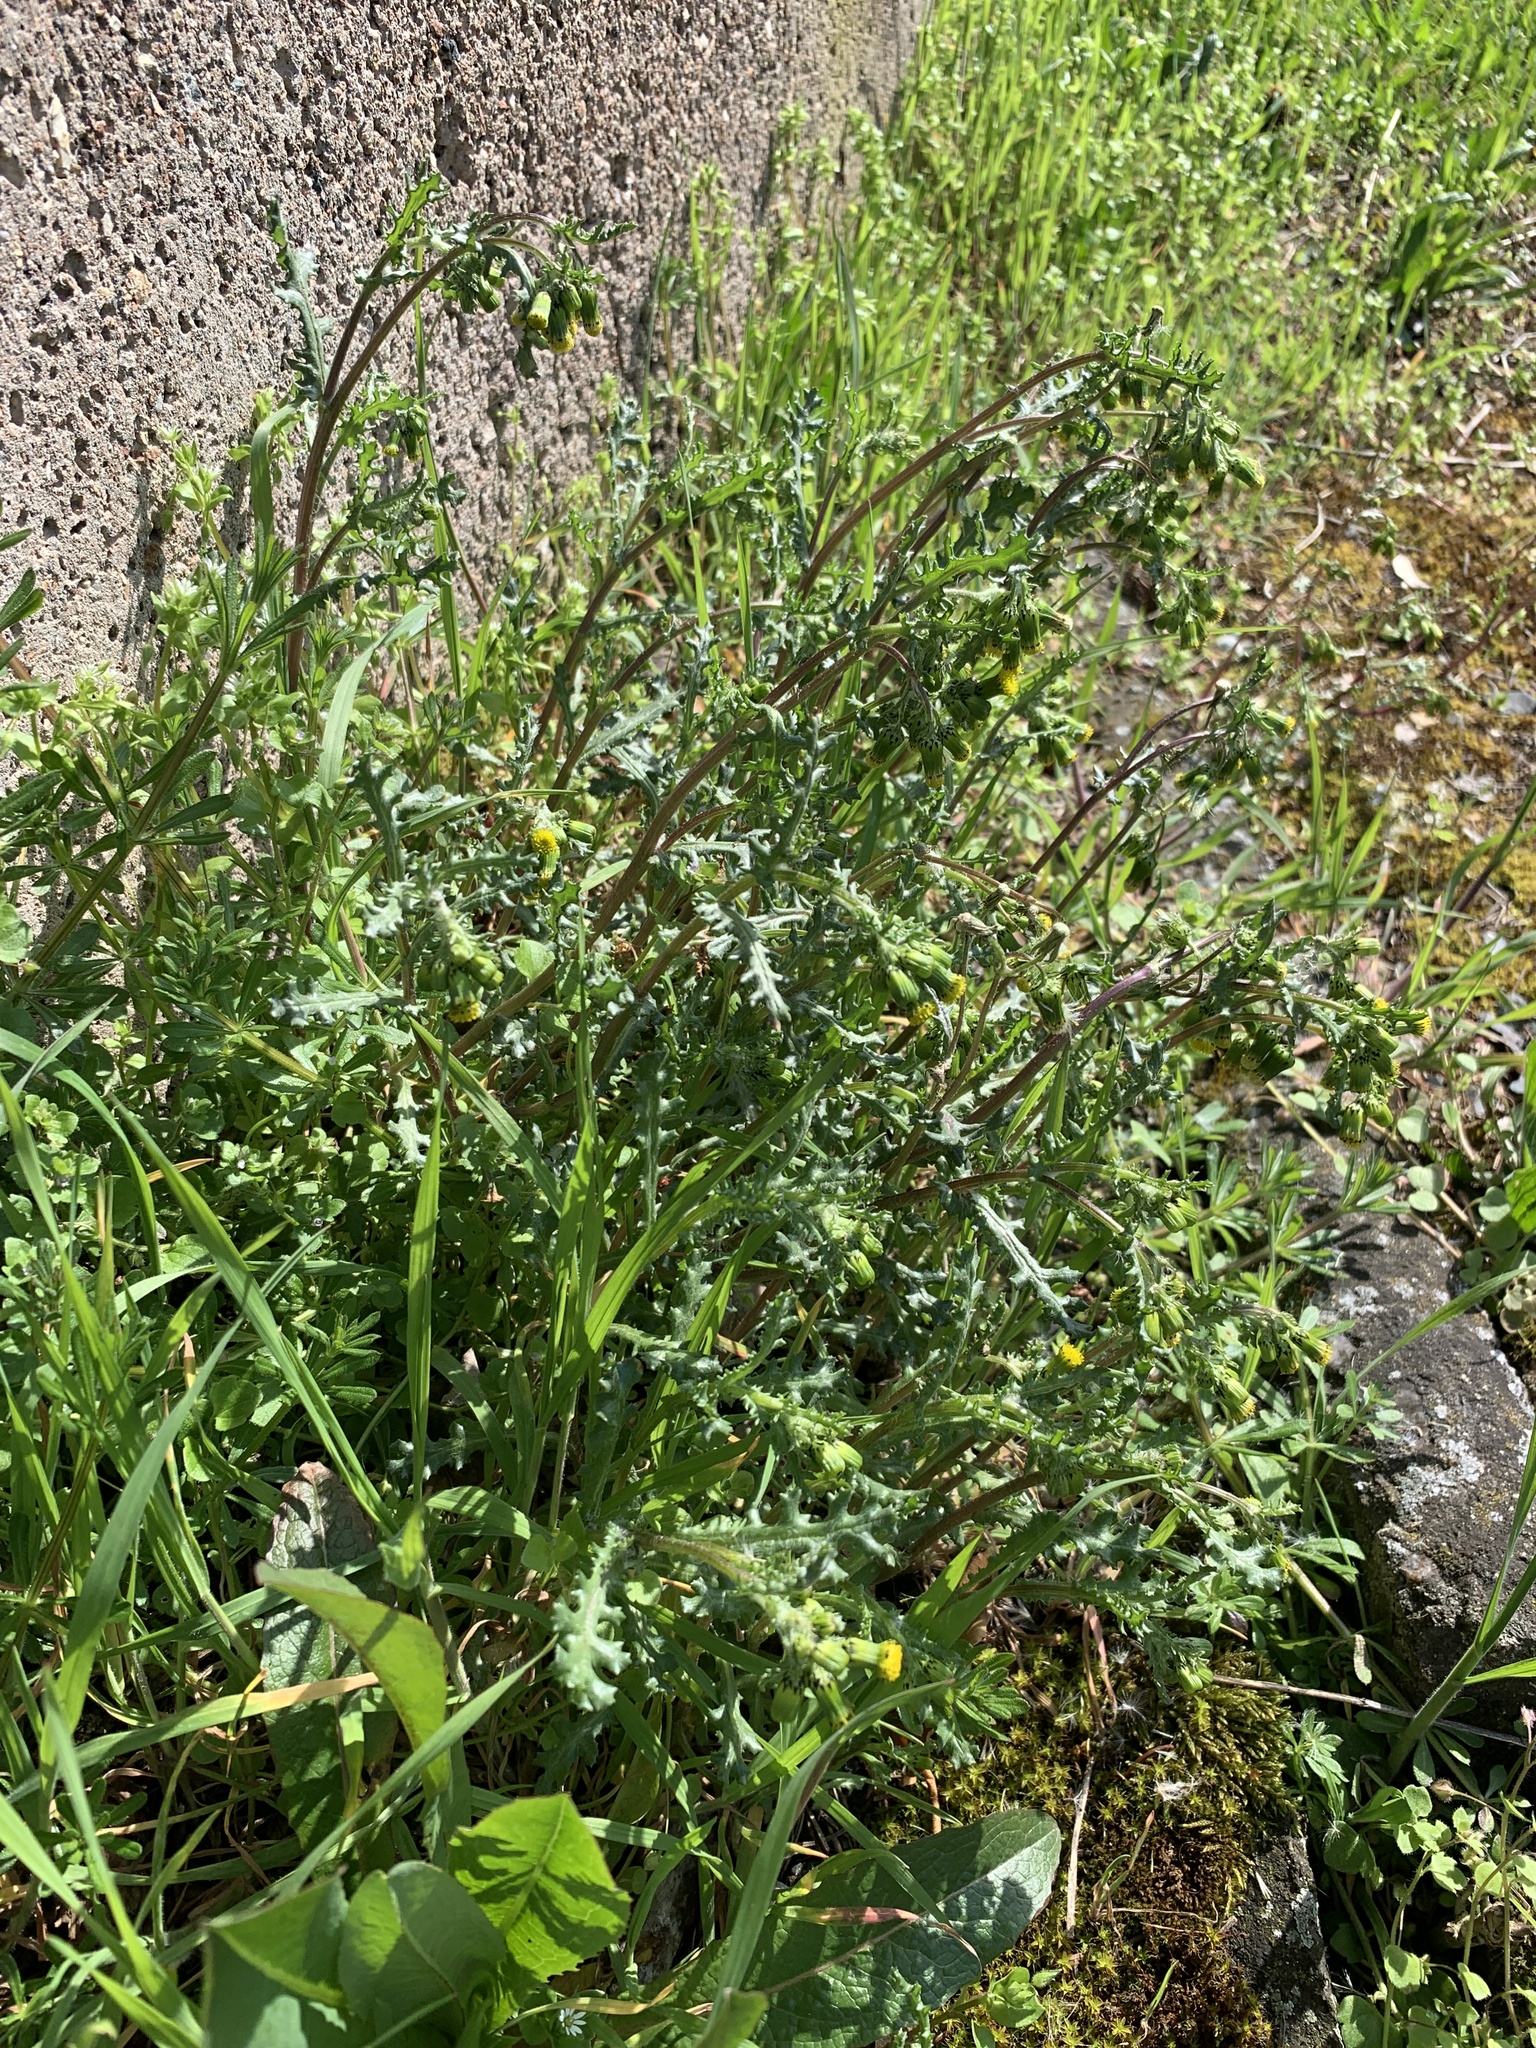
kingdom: Plantae
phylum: Tracheophyta
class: Magnoliopsida
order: Asterales
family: Asteraceae
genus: Senecio
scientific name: Senecio vulgaris
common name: Old-man-in-the-spring
